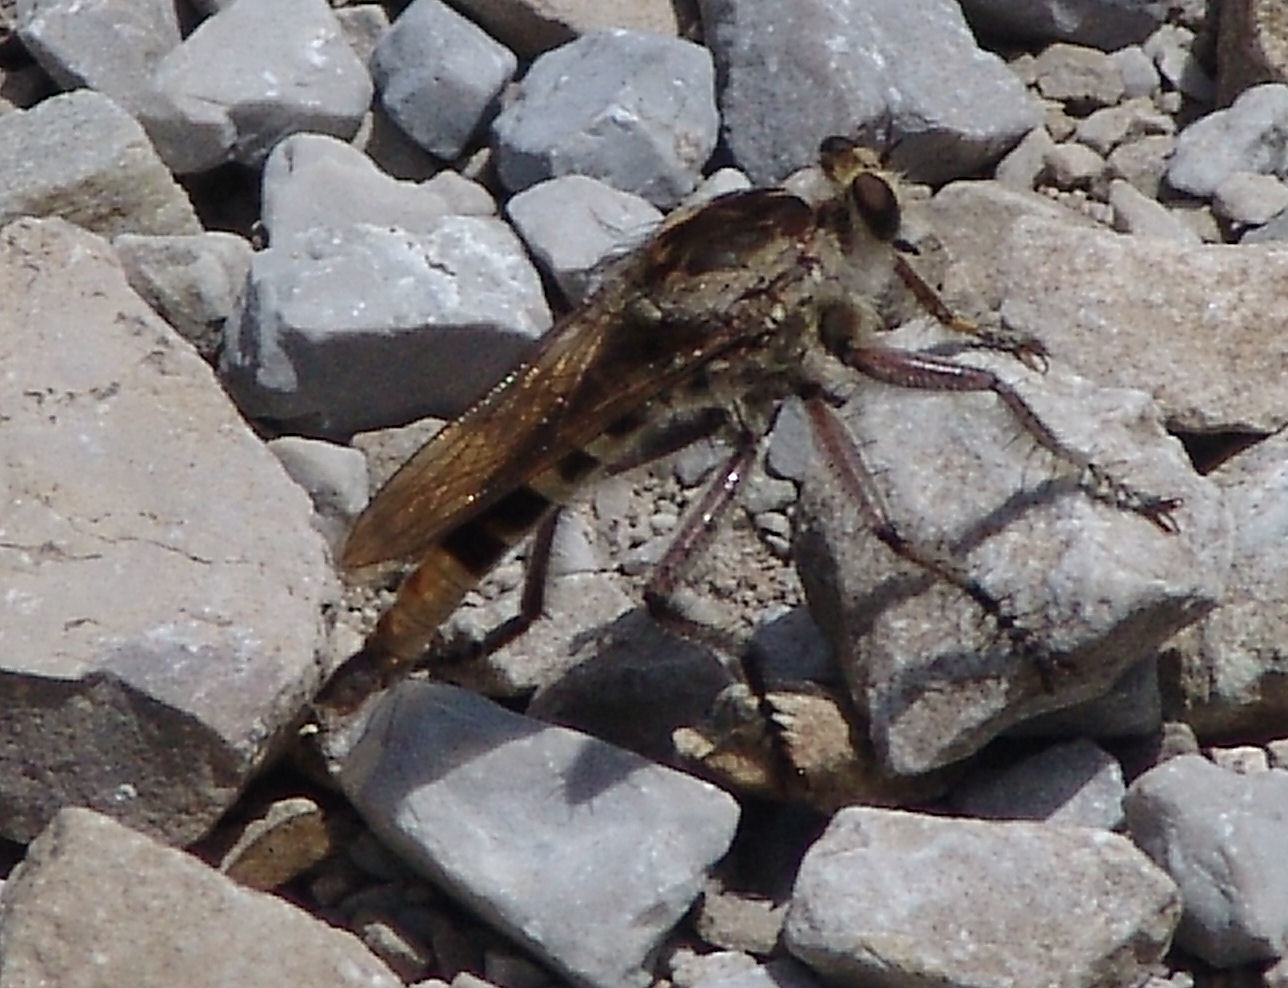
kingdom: Animalia
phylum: Arthropoda
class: Insecta
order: Diptera
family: Asilidae
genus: Triorla
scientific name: Triorla interrupta
